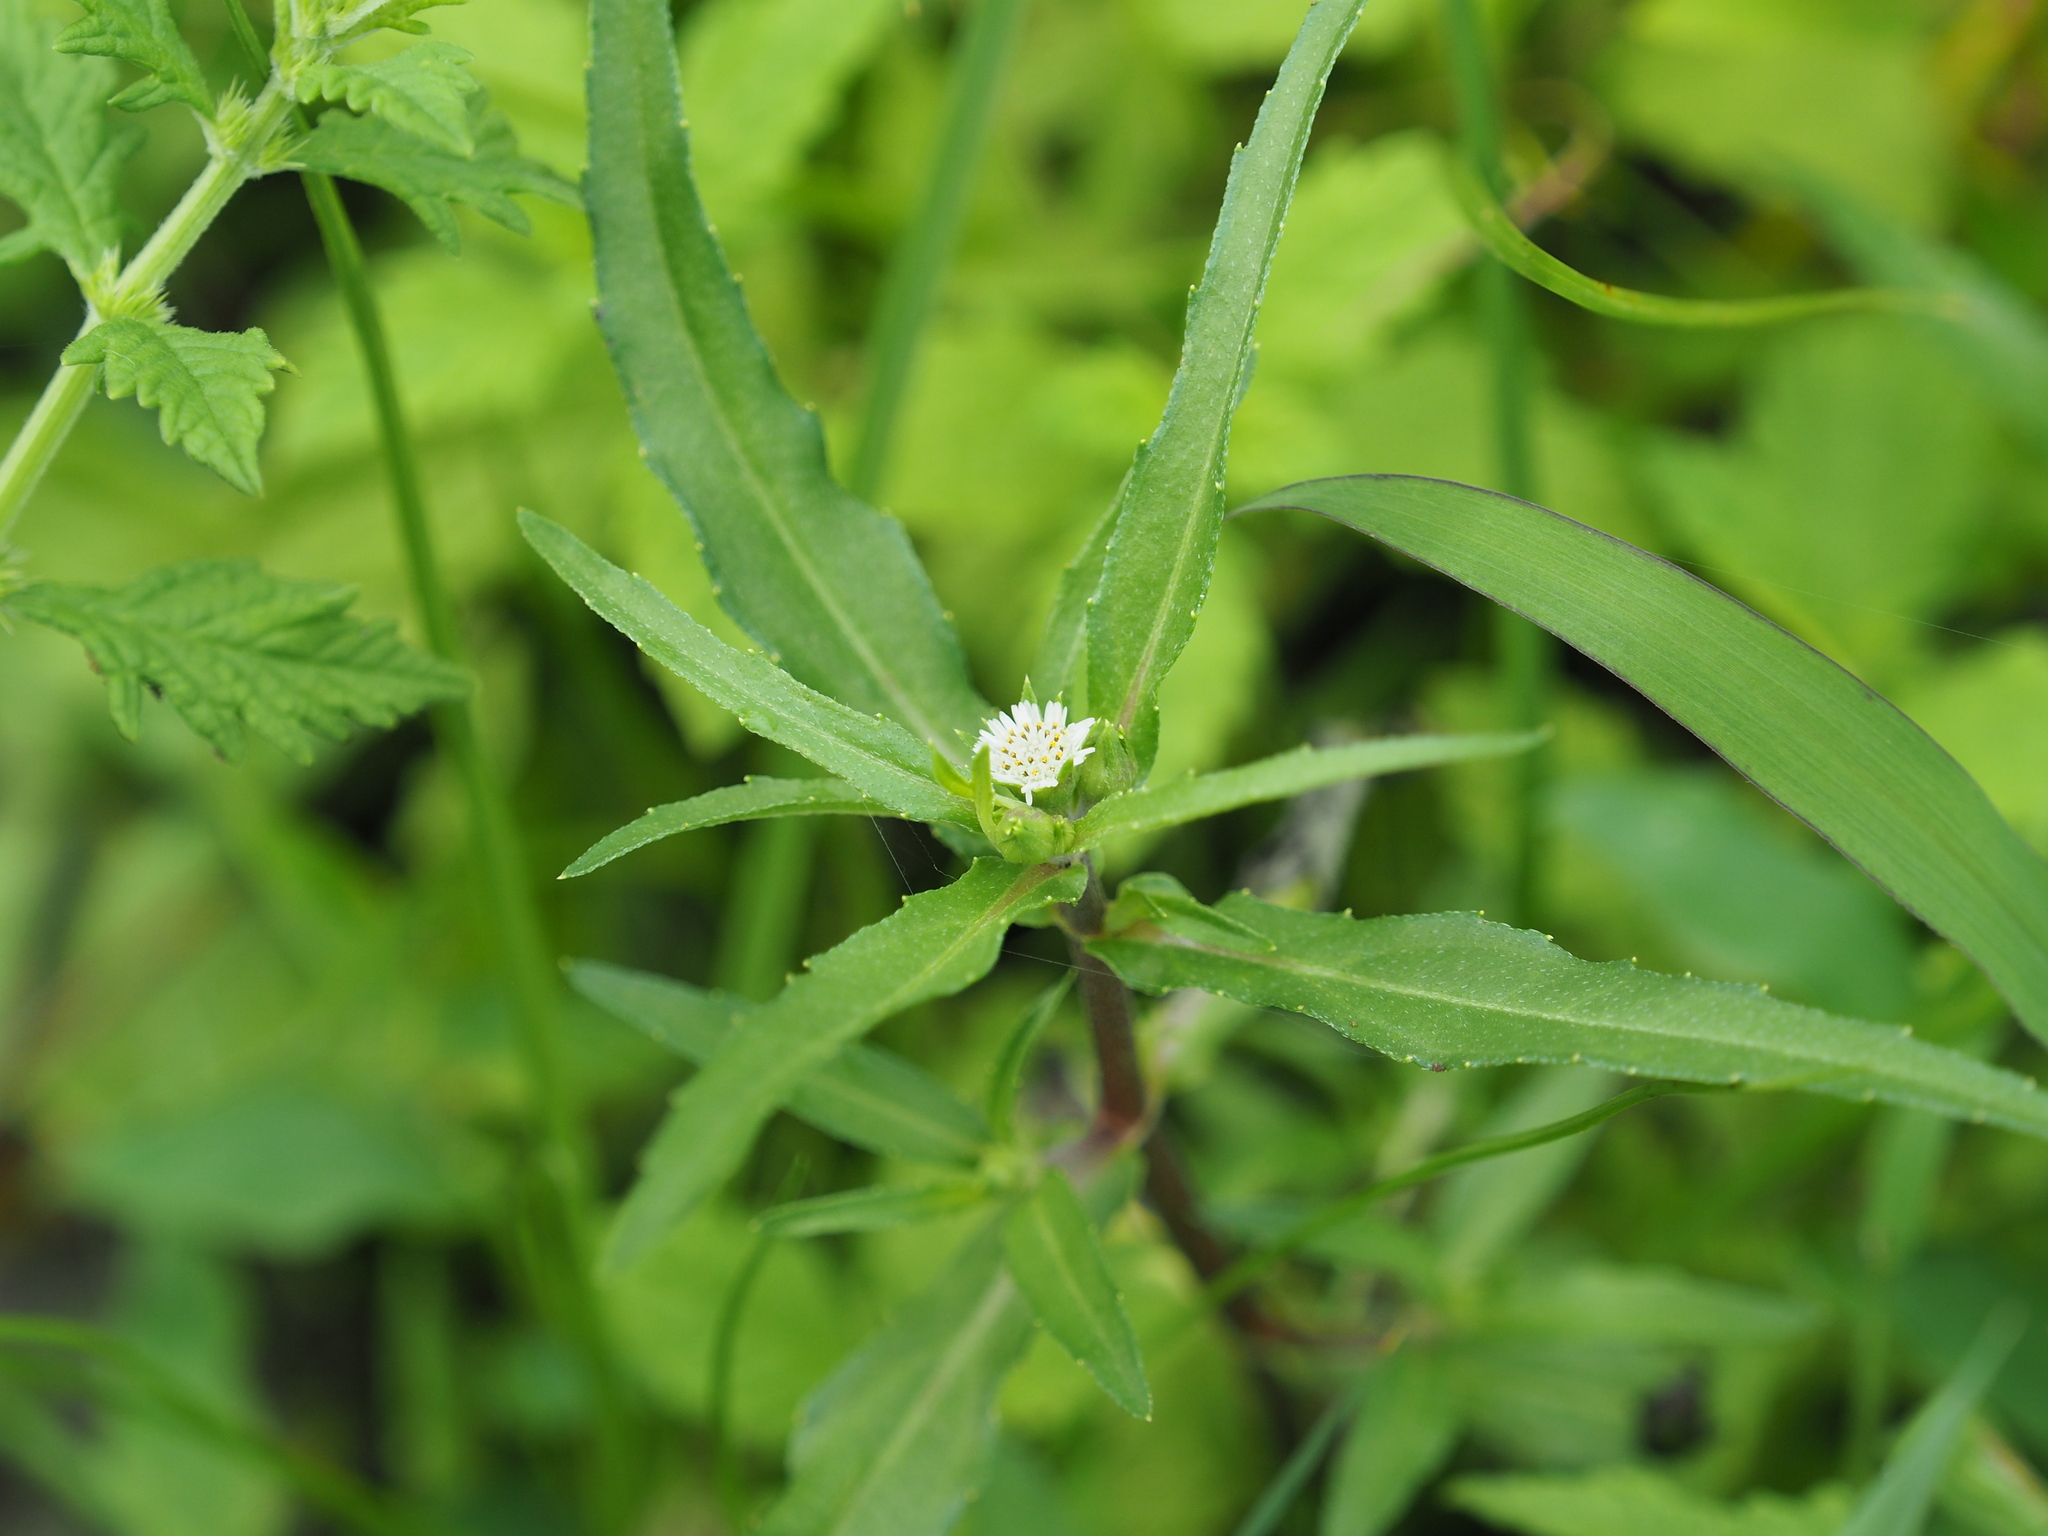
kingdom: Plantae
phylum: Tracheophyta
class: Magnoliopsida
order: Asterales
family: Asteraceae
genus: Eclipta
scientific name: Eclipta prostrata
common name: False daisy
